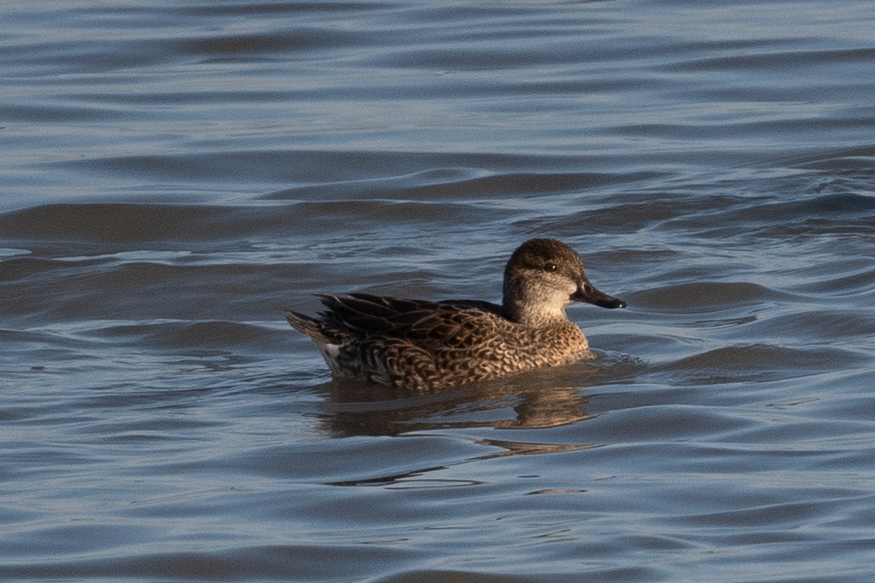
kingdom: Animalia
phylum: Chordata
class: Aves
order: Anseriformes
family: Anatidae
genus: Anas
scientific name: Anas crecca
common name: Eurasian teal
